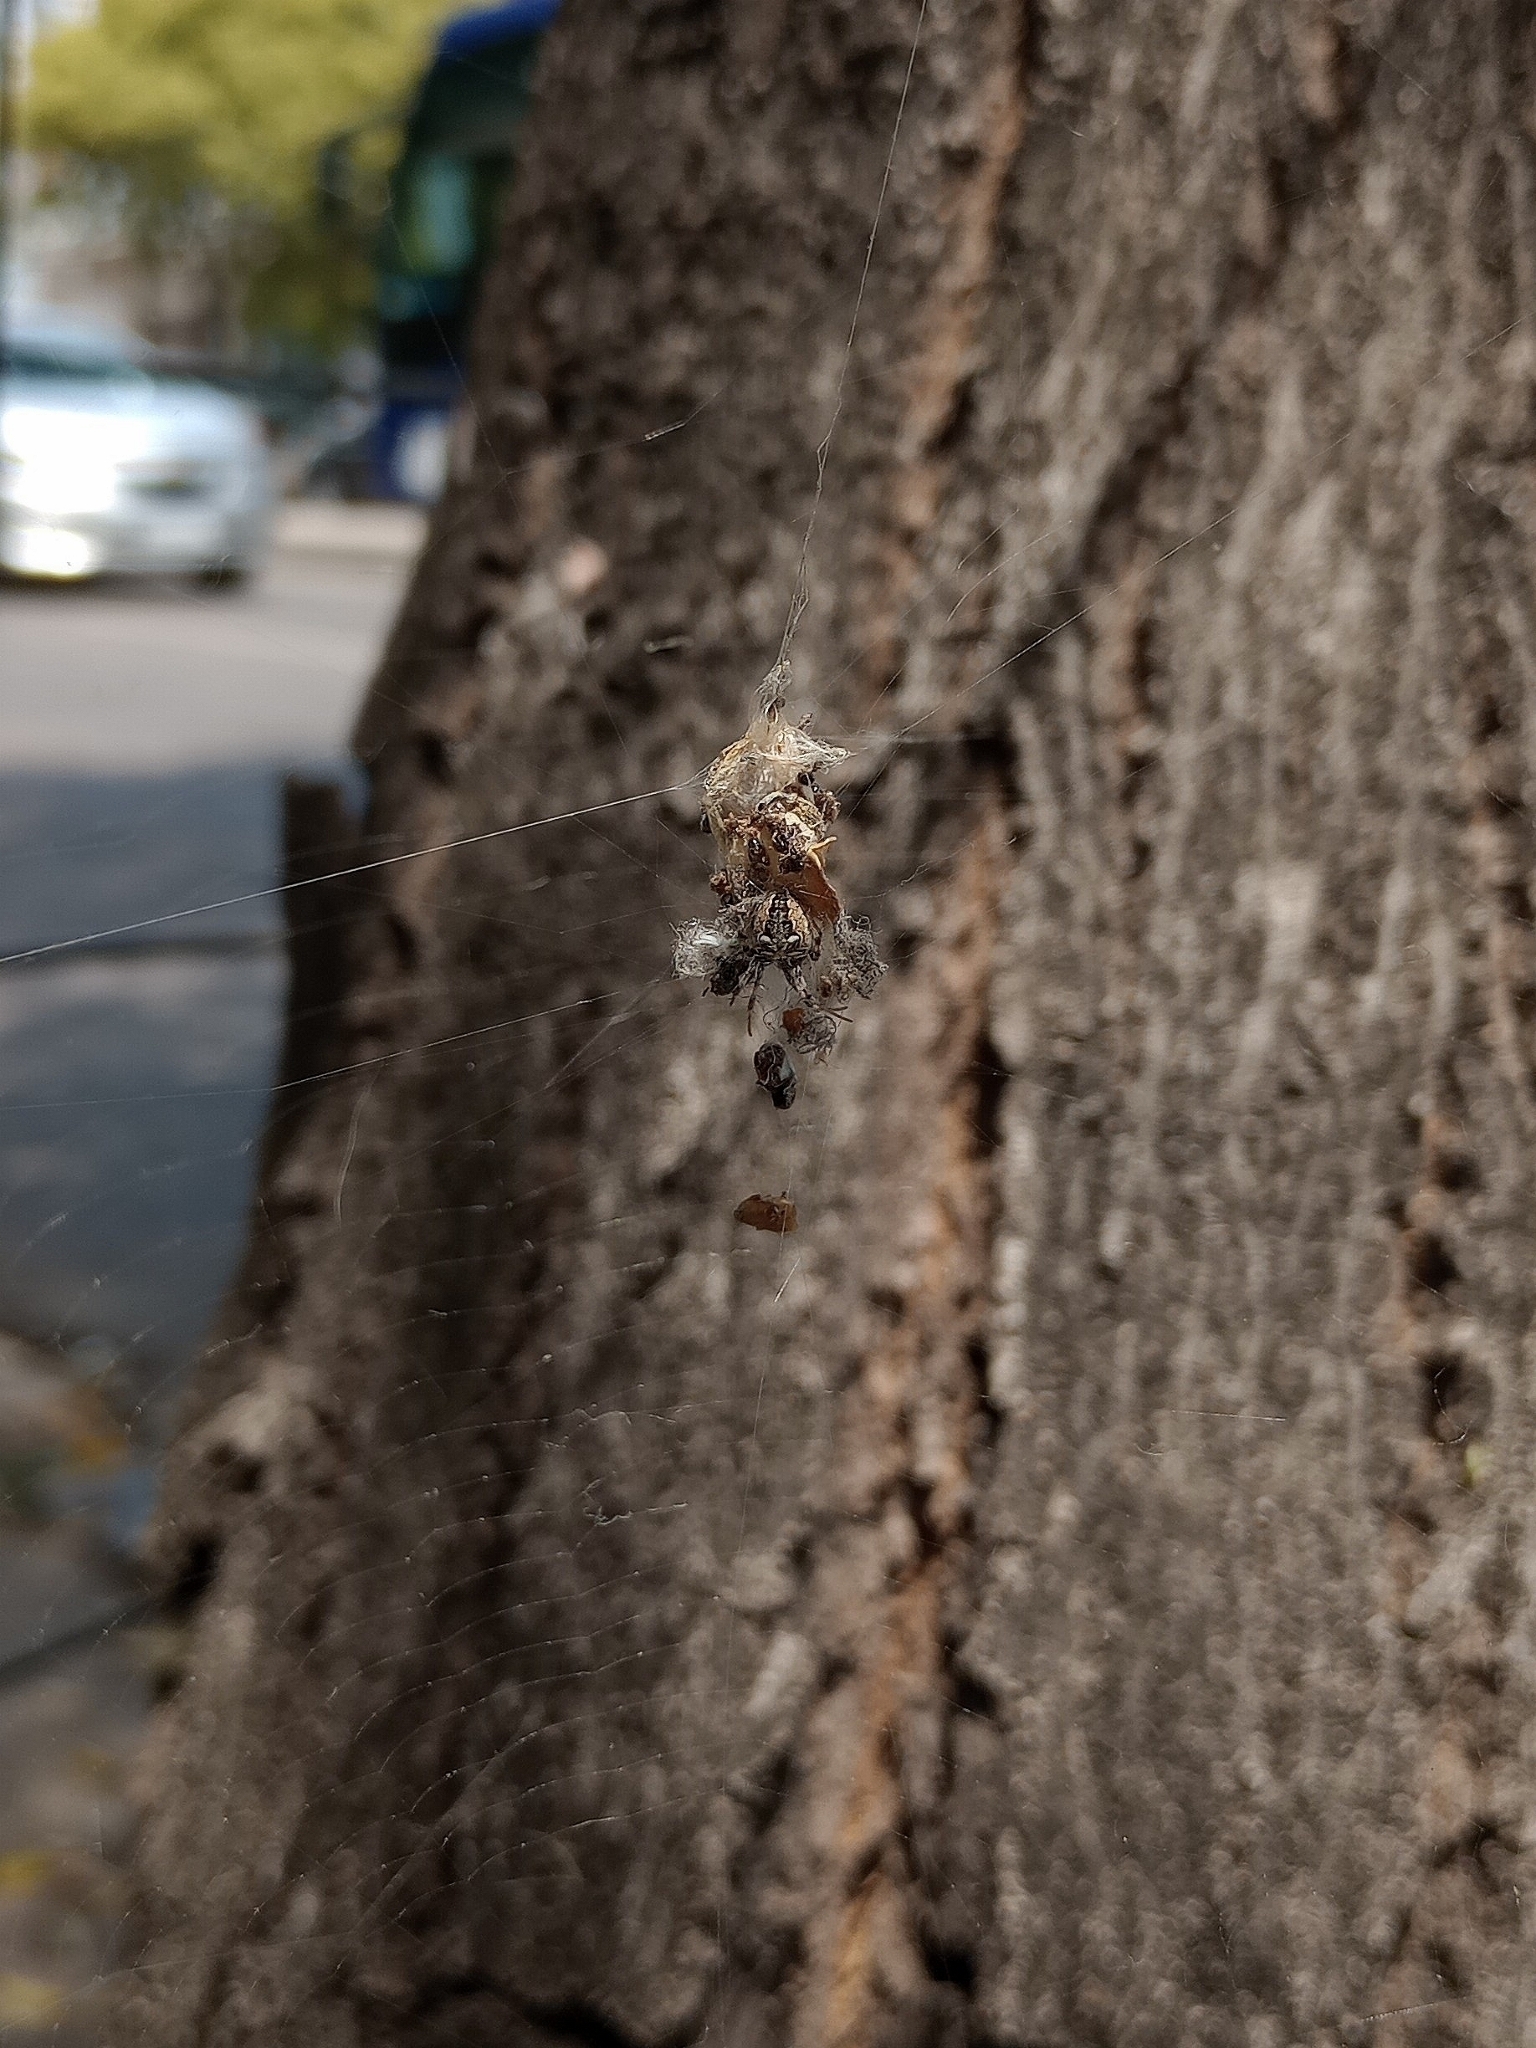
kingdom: Animalia
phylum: Arthropoda
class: Arachnida
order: Araneae
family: Araneidae
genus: Metepeira
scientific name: Metepeira
